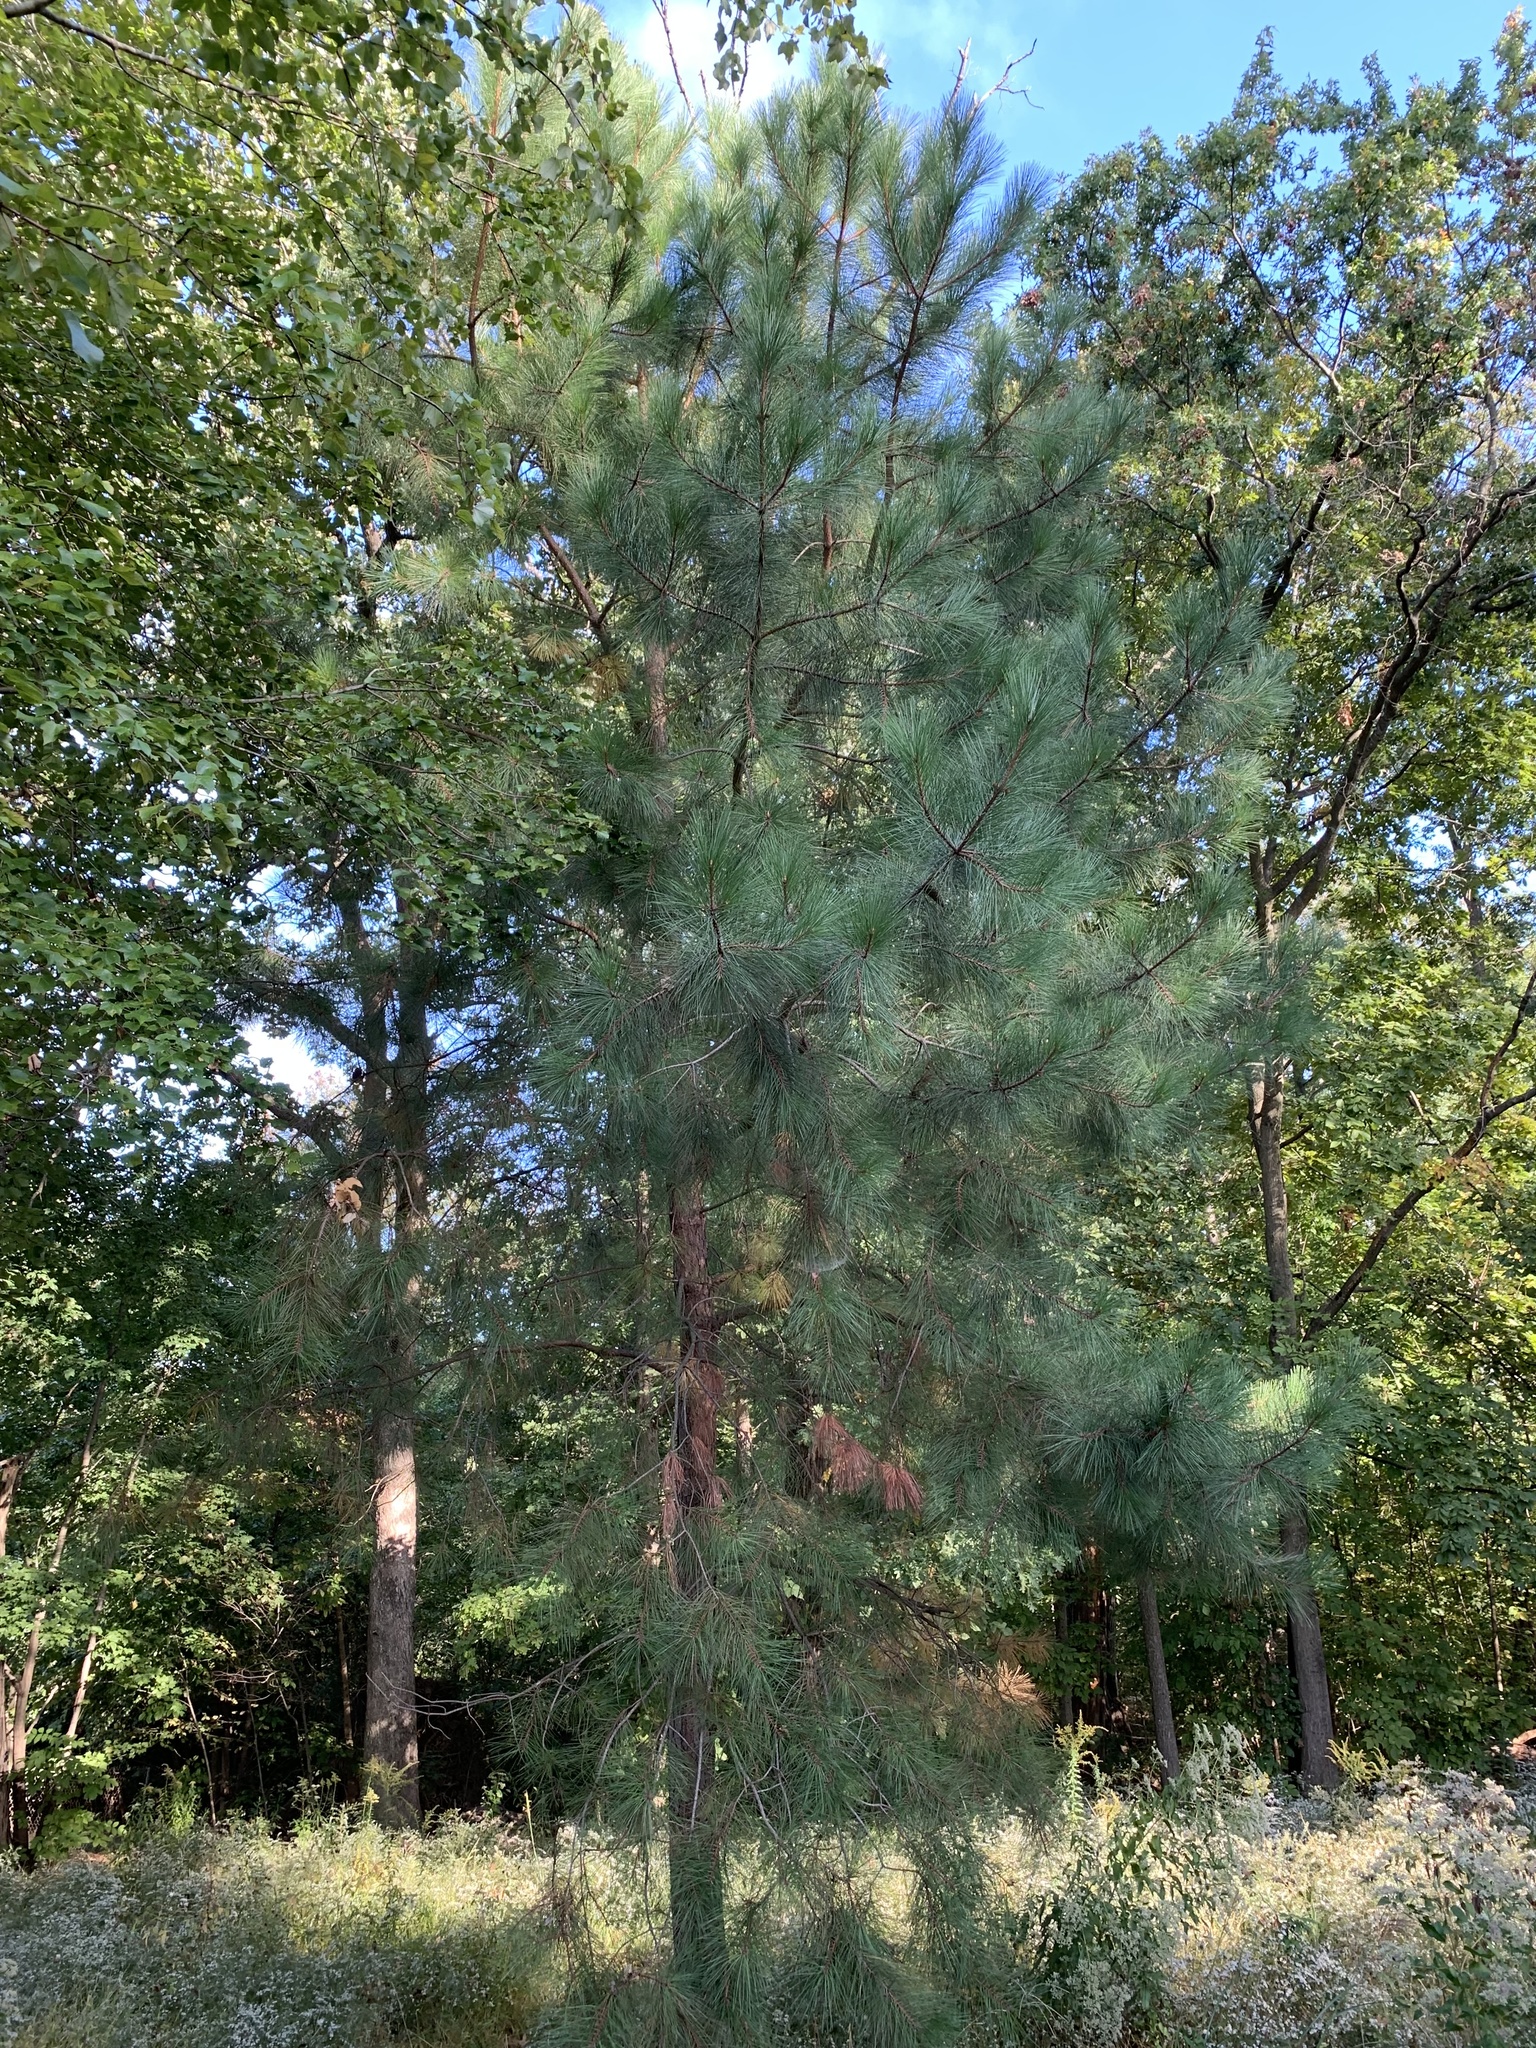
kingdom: Plantae
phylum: Tracheophyta
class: Pinopsida
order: Pinales
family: Pinaceae
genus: Pinus
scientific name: Pinus taeda
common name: Loblolly pine
